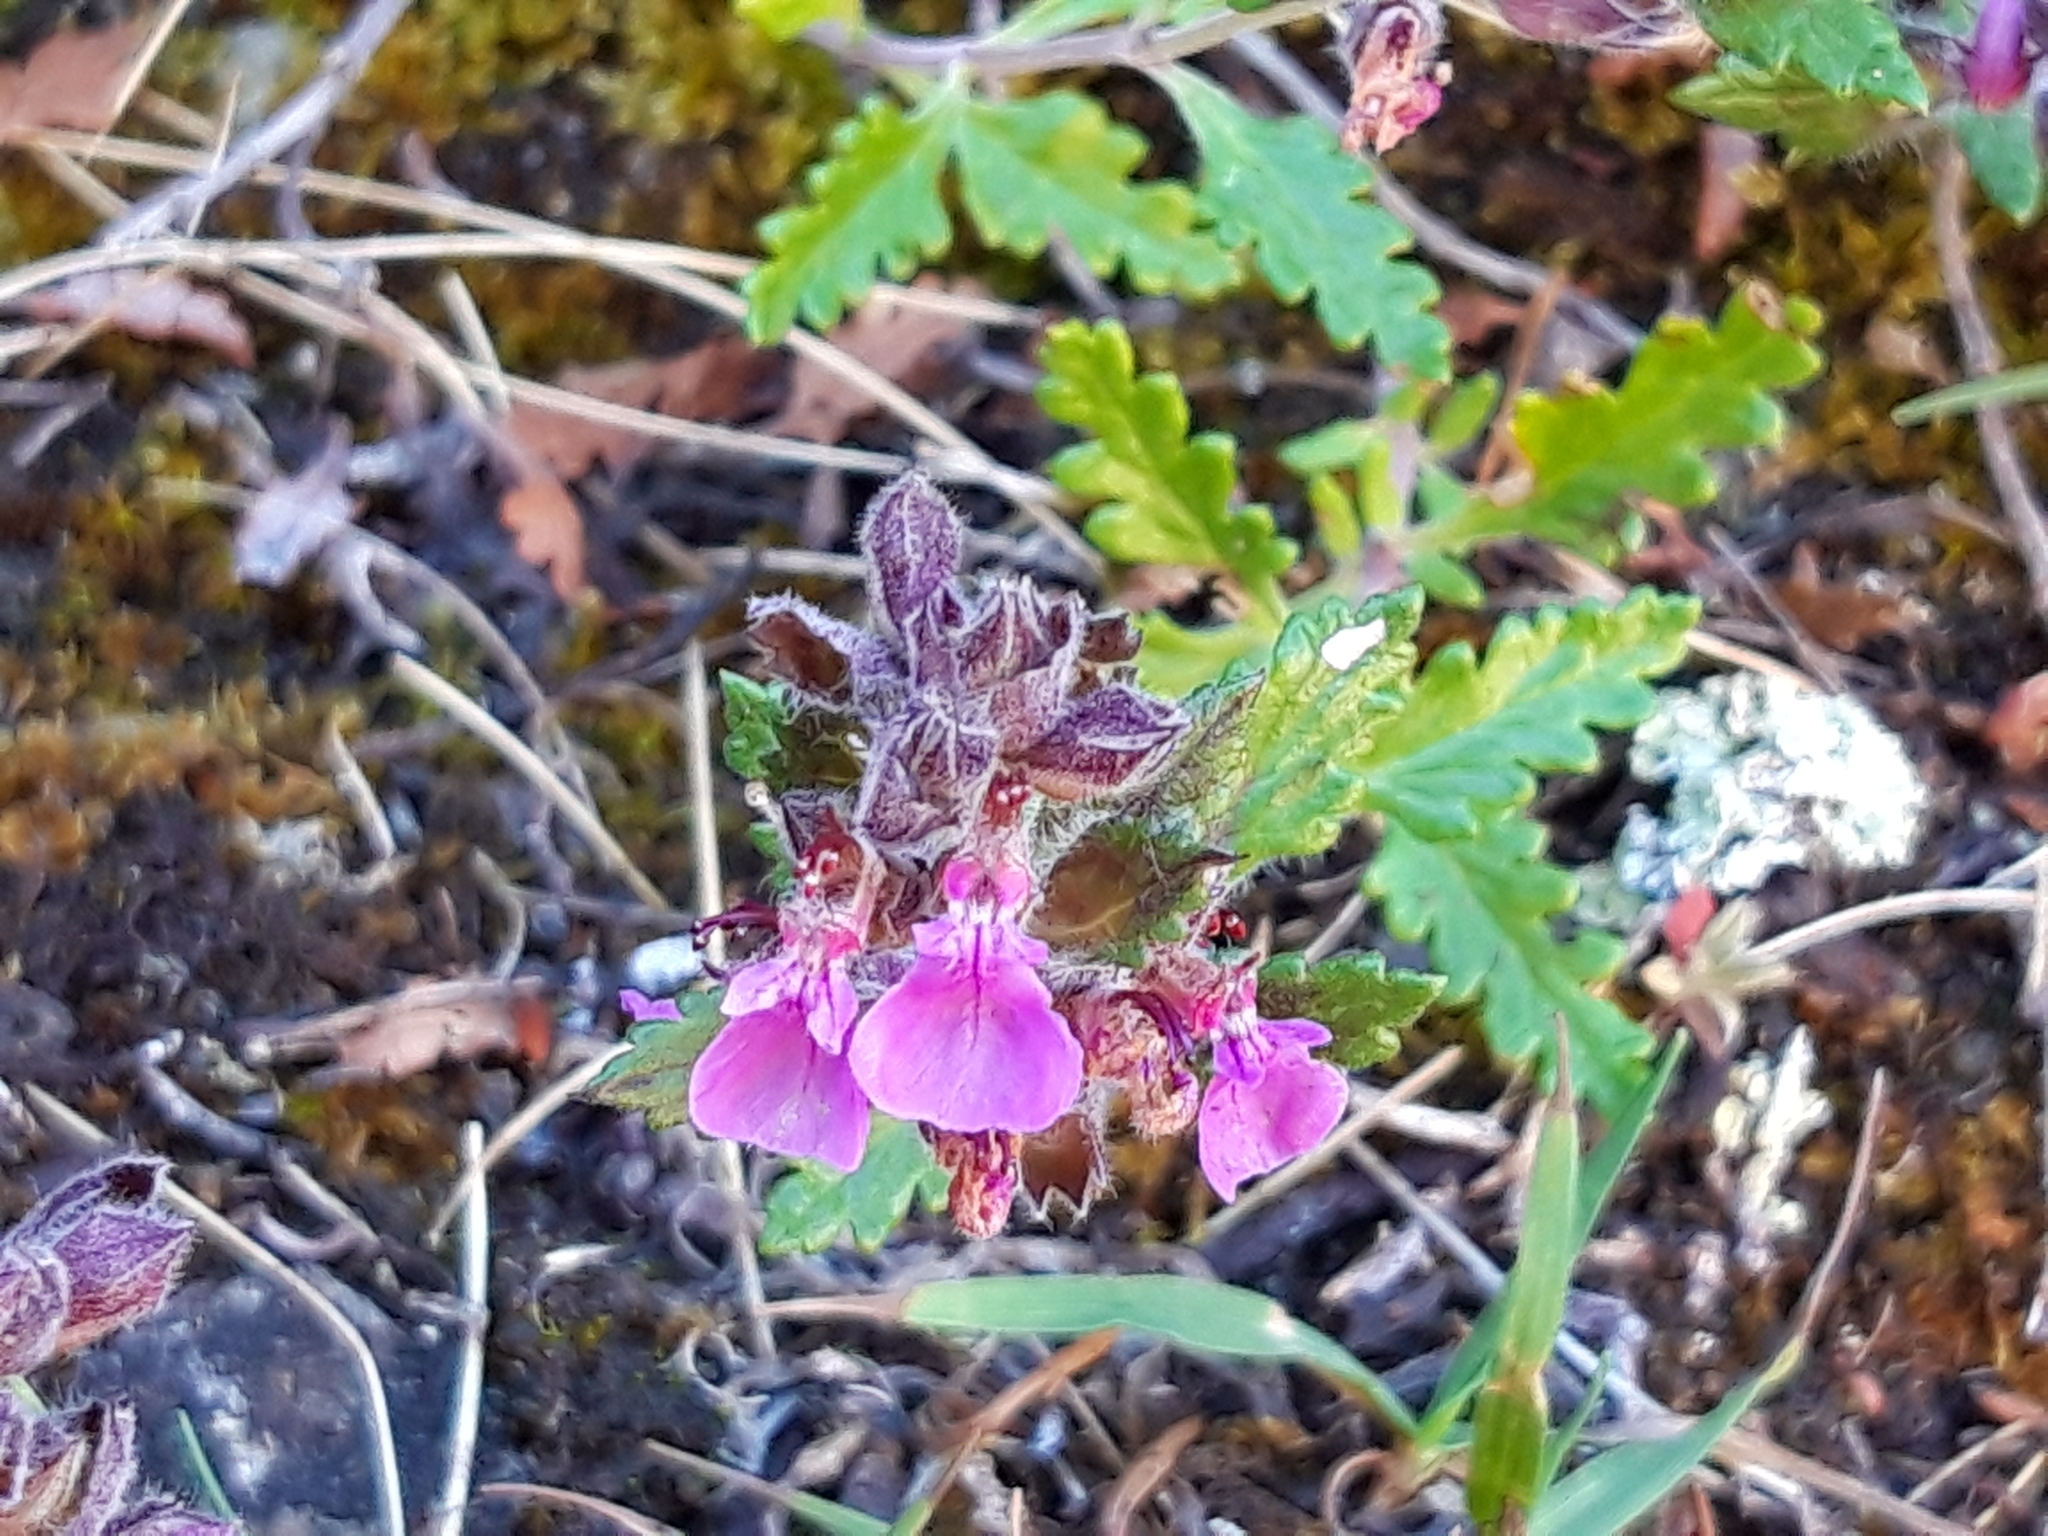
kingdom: Plantae
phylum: Tracheophyta
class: Magnoliopsida
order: Lamiales
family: Lamiaceae
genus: Teucrium
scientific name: Teucrium chamaedrys
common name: Wall germander
